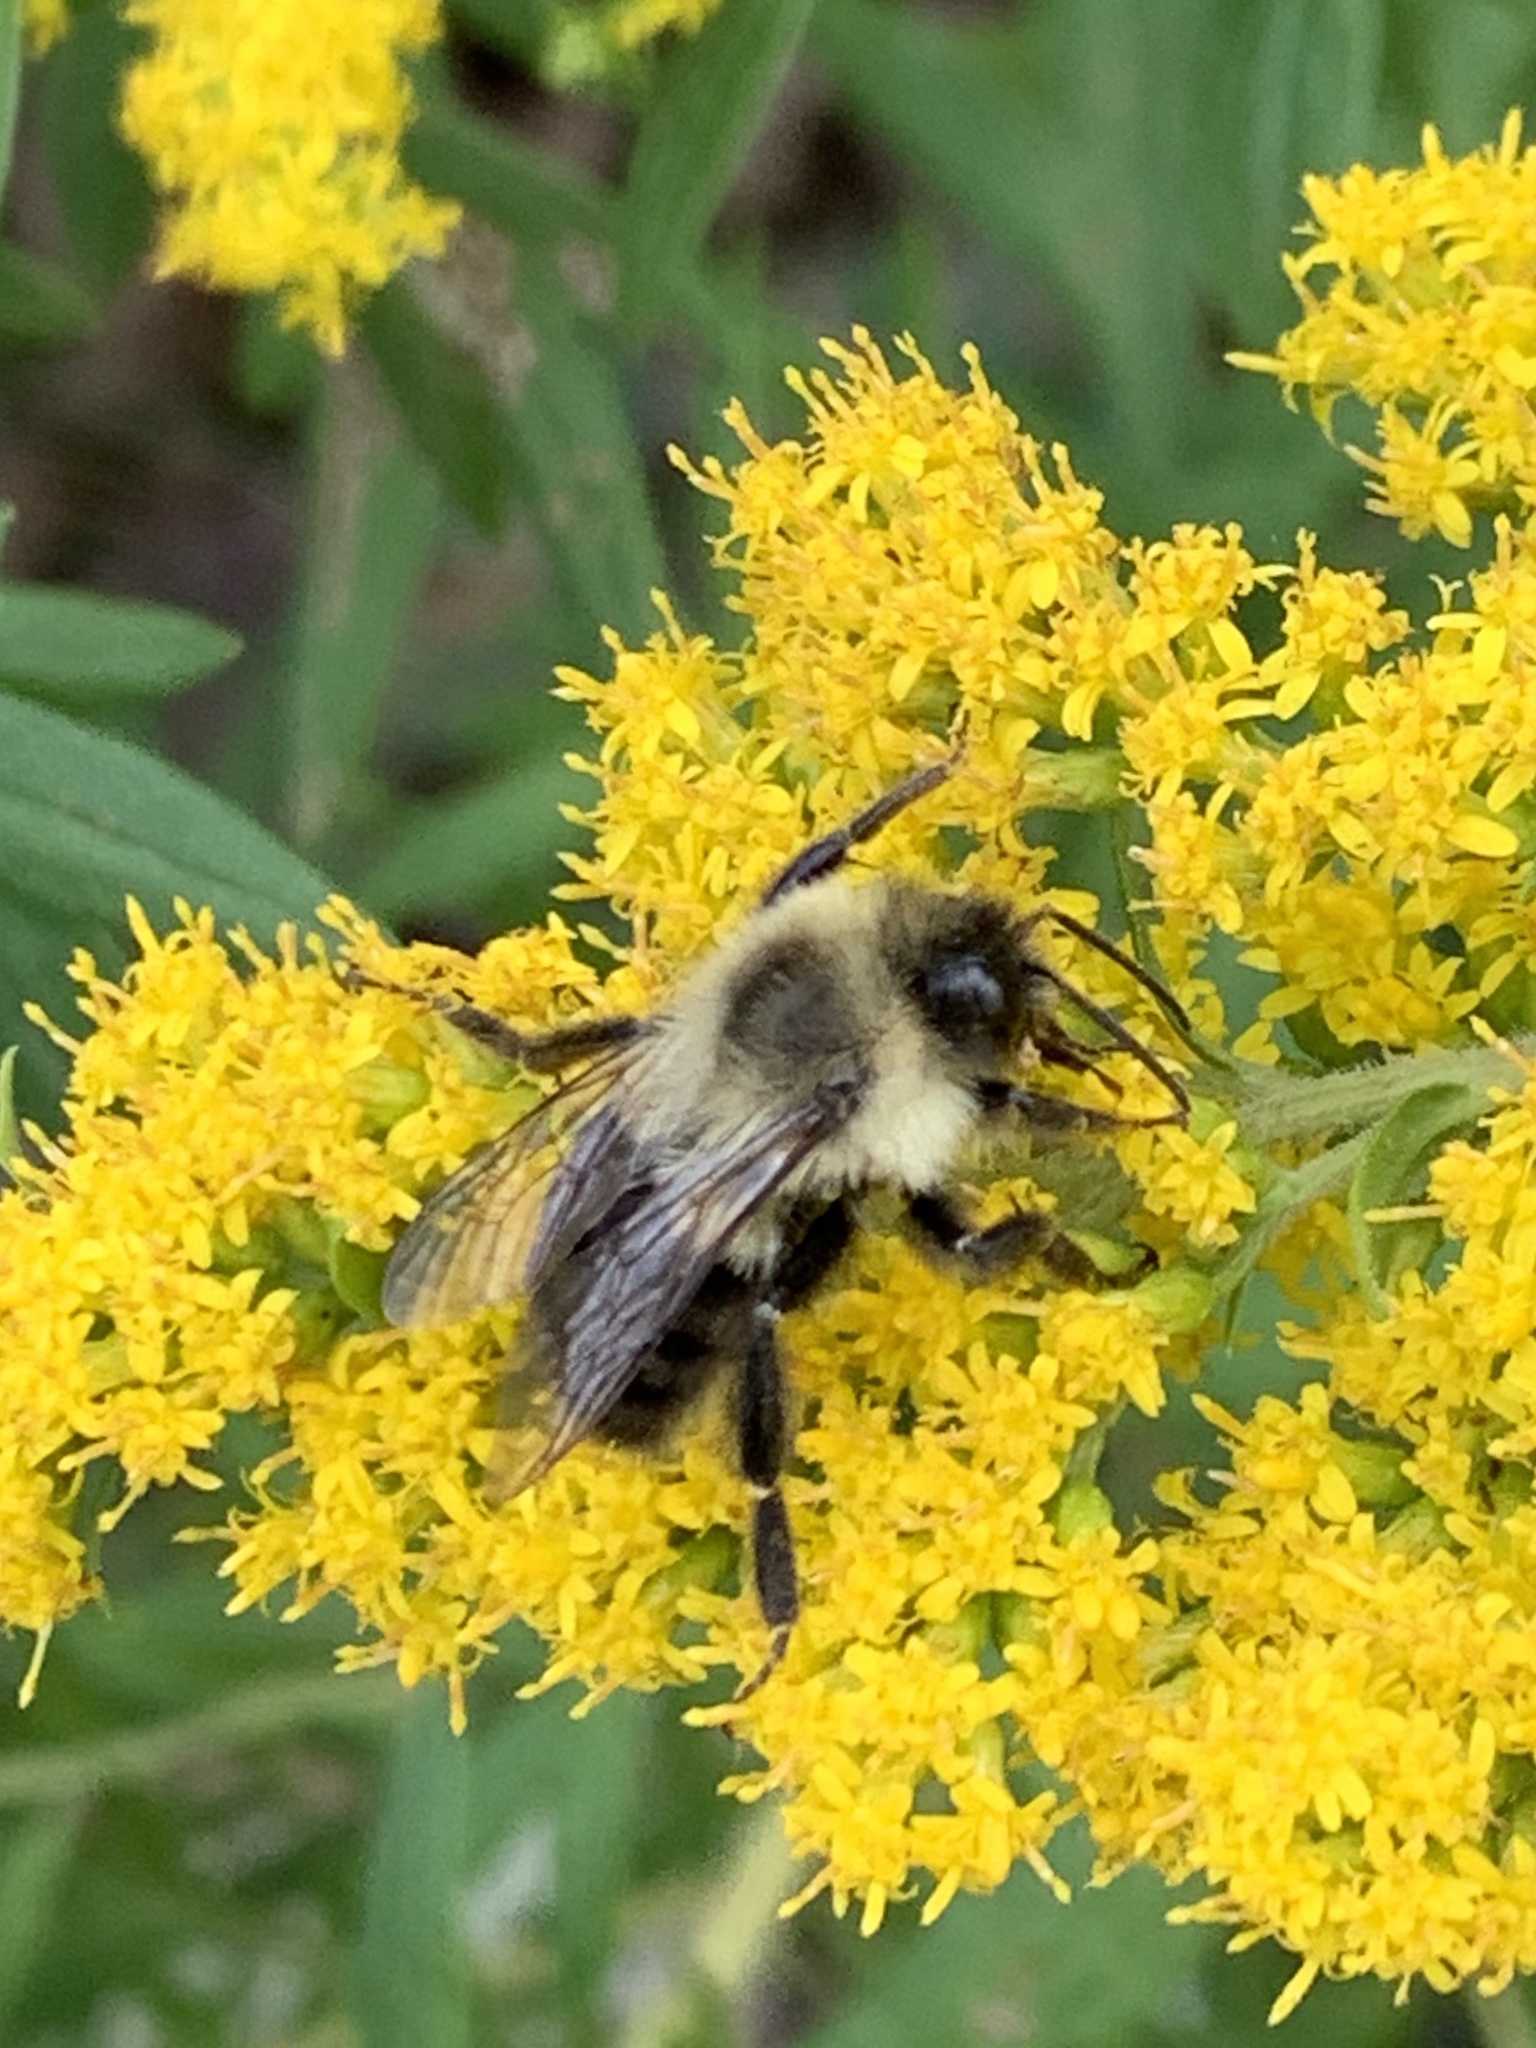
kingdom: Animalia
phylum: Arthropoda
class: Insecta
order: Hymenoptera
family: Apidae
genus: Bombus
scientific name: Bombus impatiens
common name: Common eastern bumble bee
